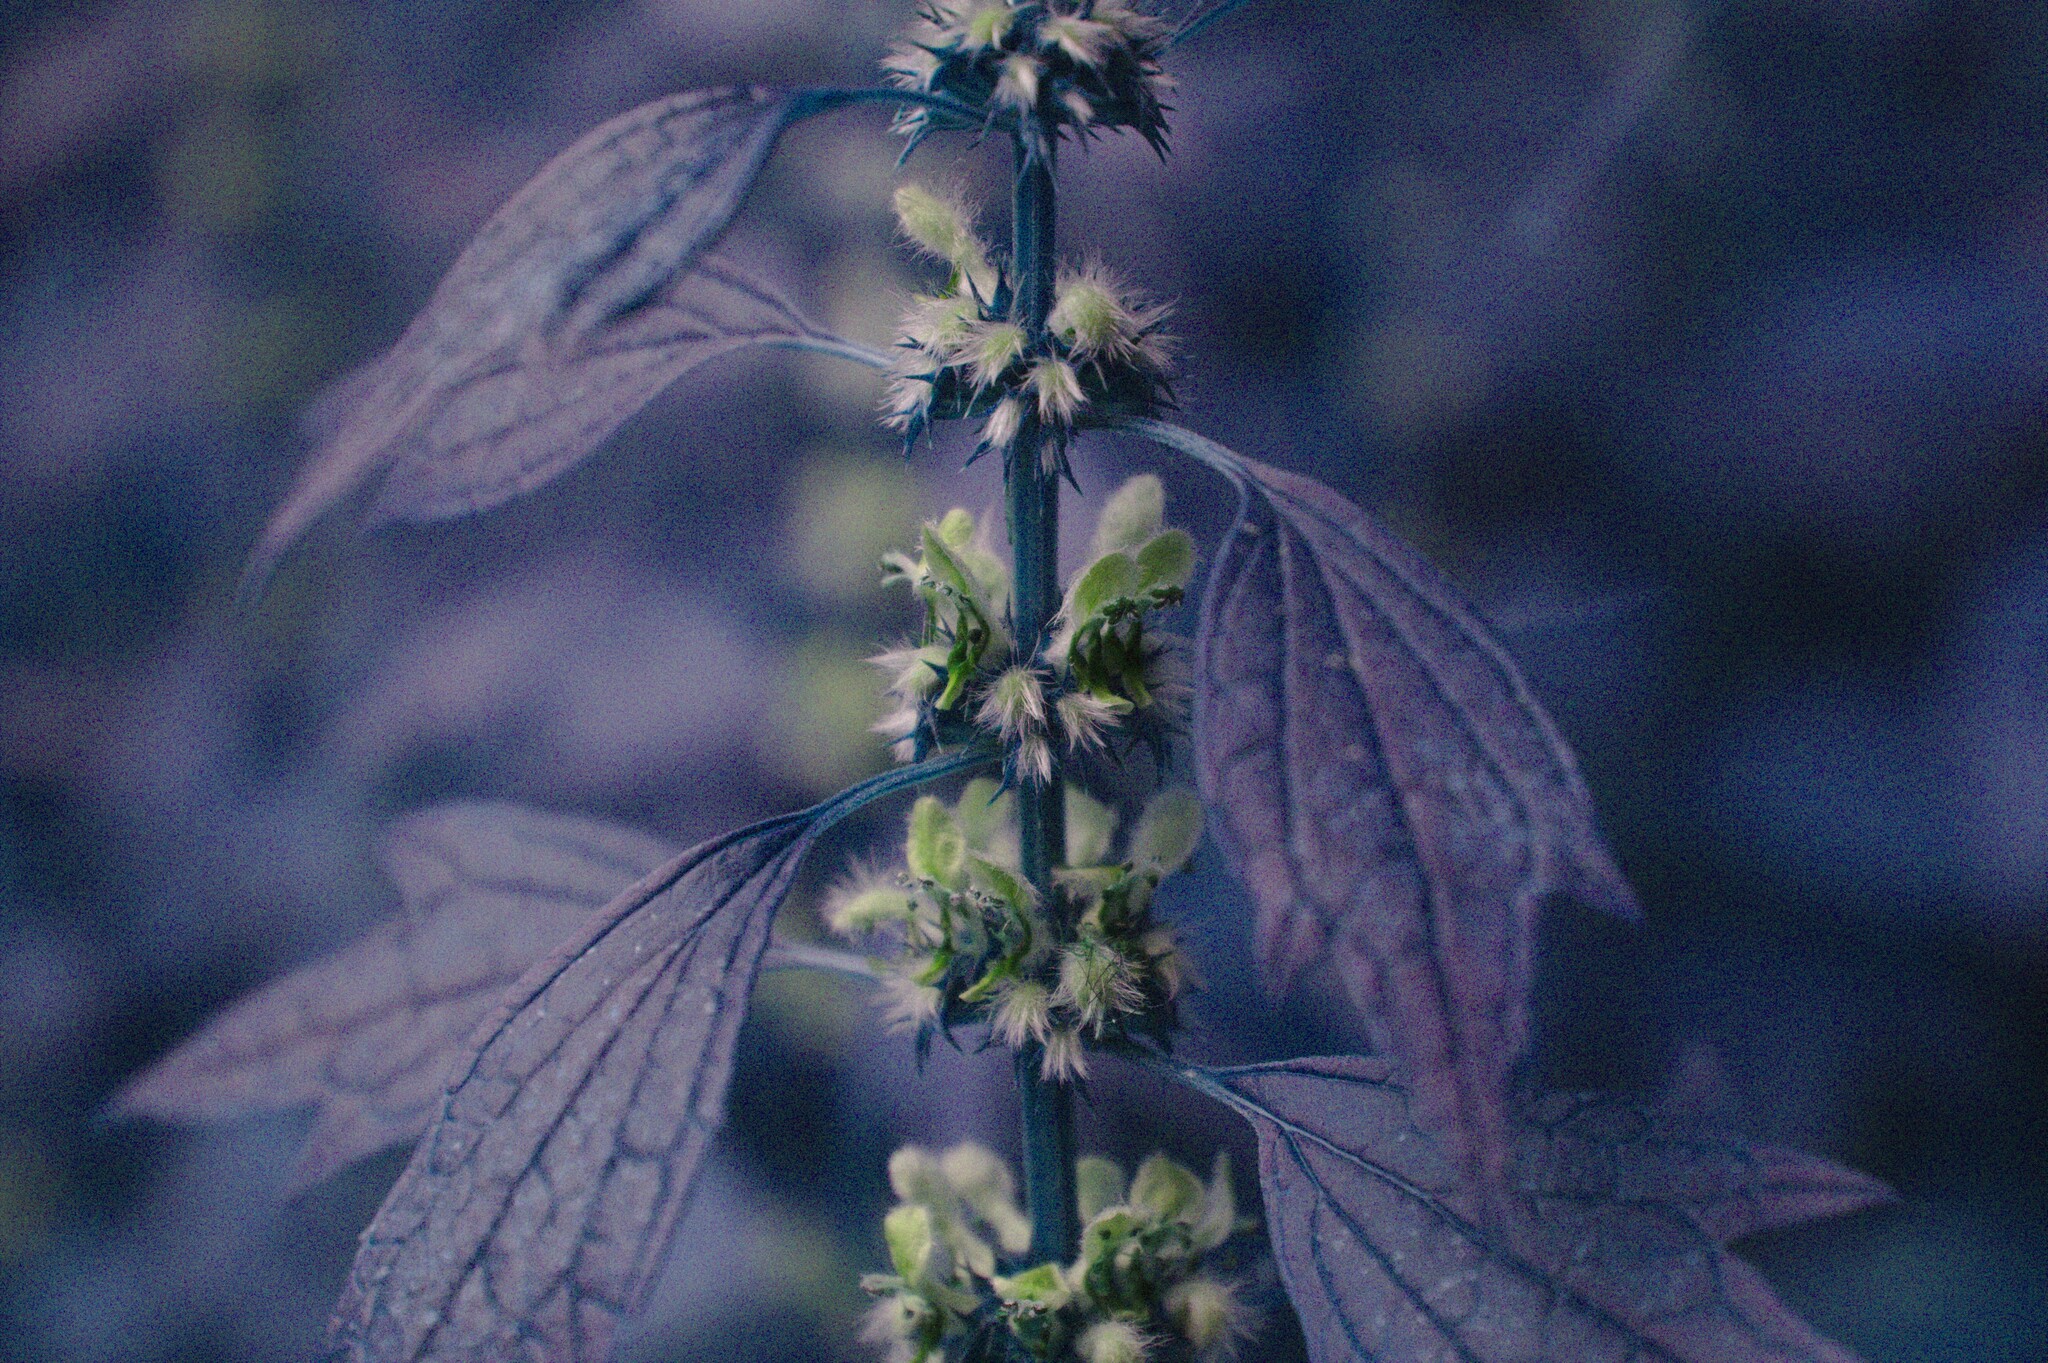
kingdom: Plantae
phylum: Tracheophyta
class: Magnoliopsida
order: Lamiales
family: Lamiaceae
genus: Leonurus
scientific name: Leonurus cardiaca
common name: Motherwort
